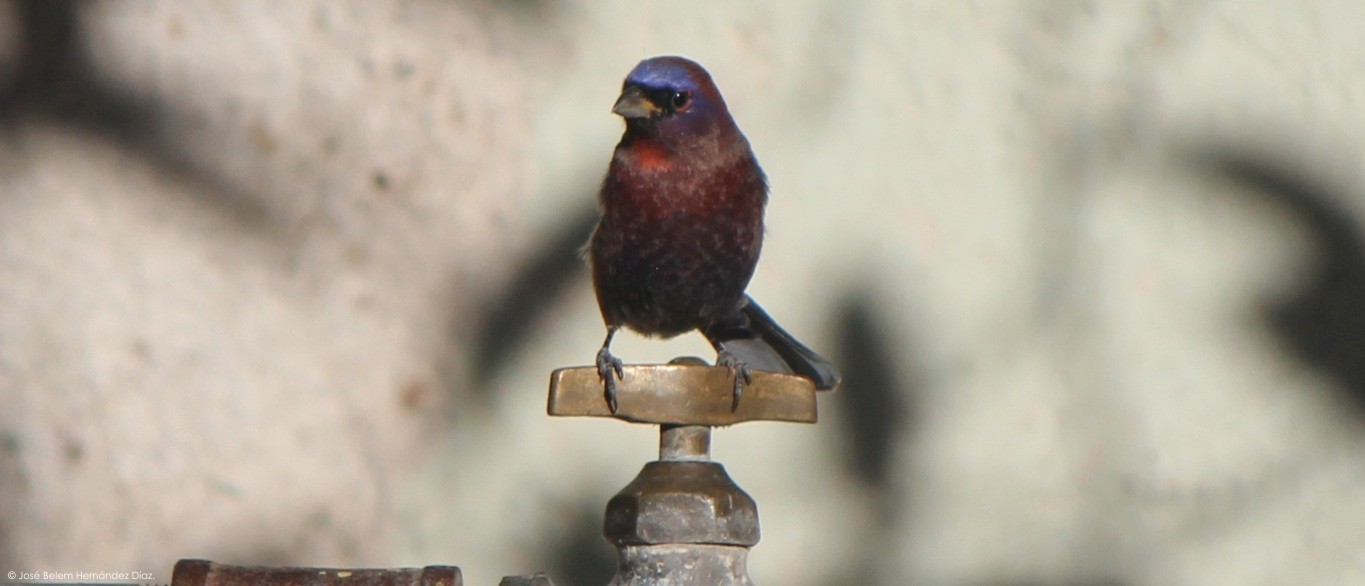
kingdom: Animalia
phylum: Chordata
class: Aves
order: Passeriformes
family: Cardinalidae
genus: Passerina
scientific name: Passerina versicolor
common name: Varied bunting
